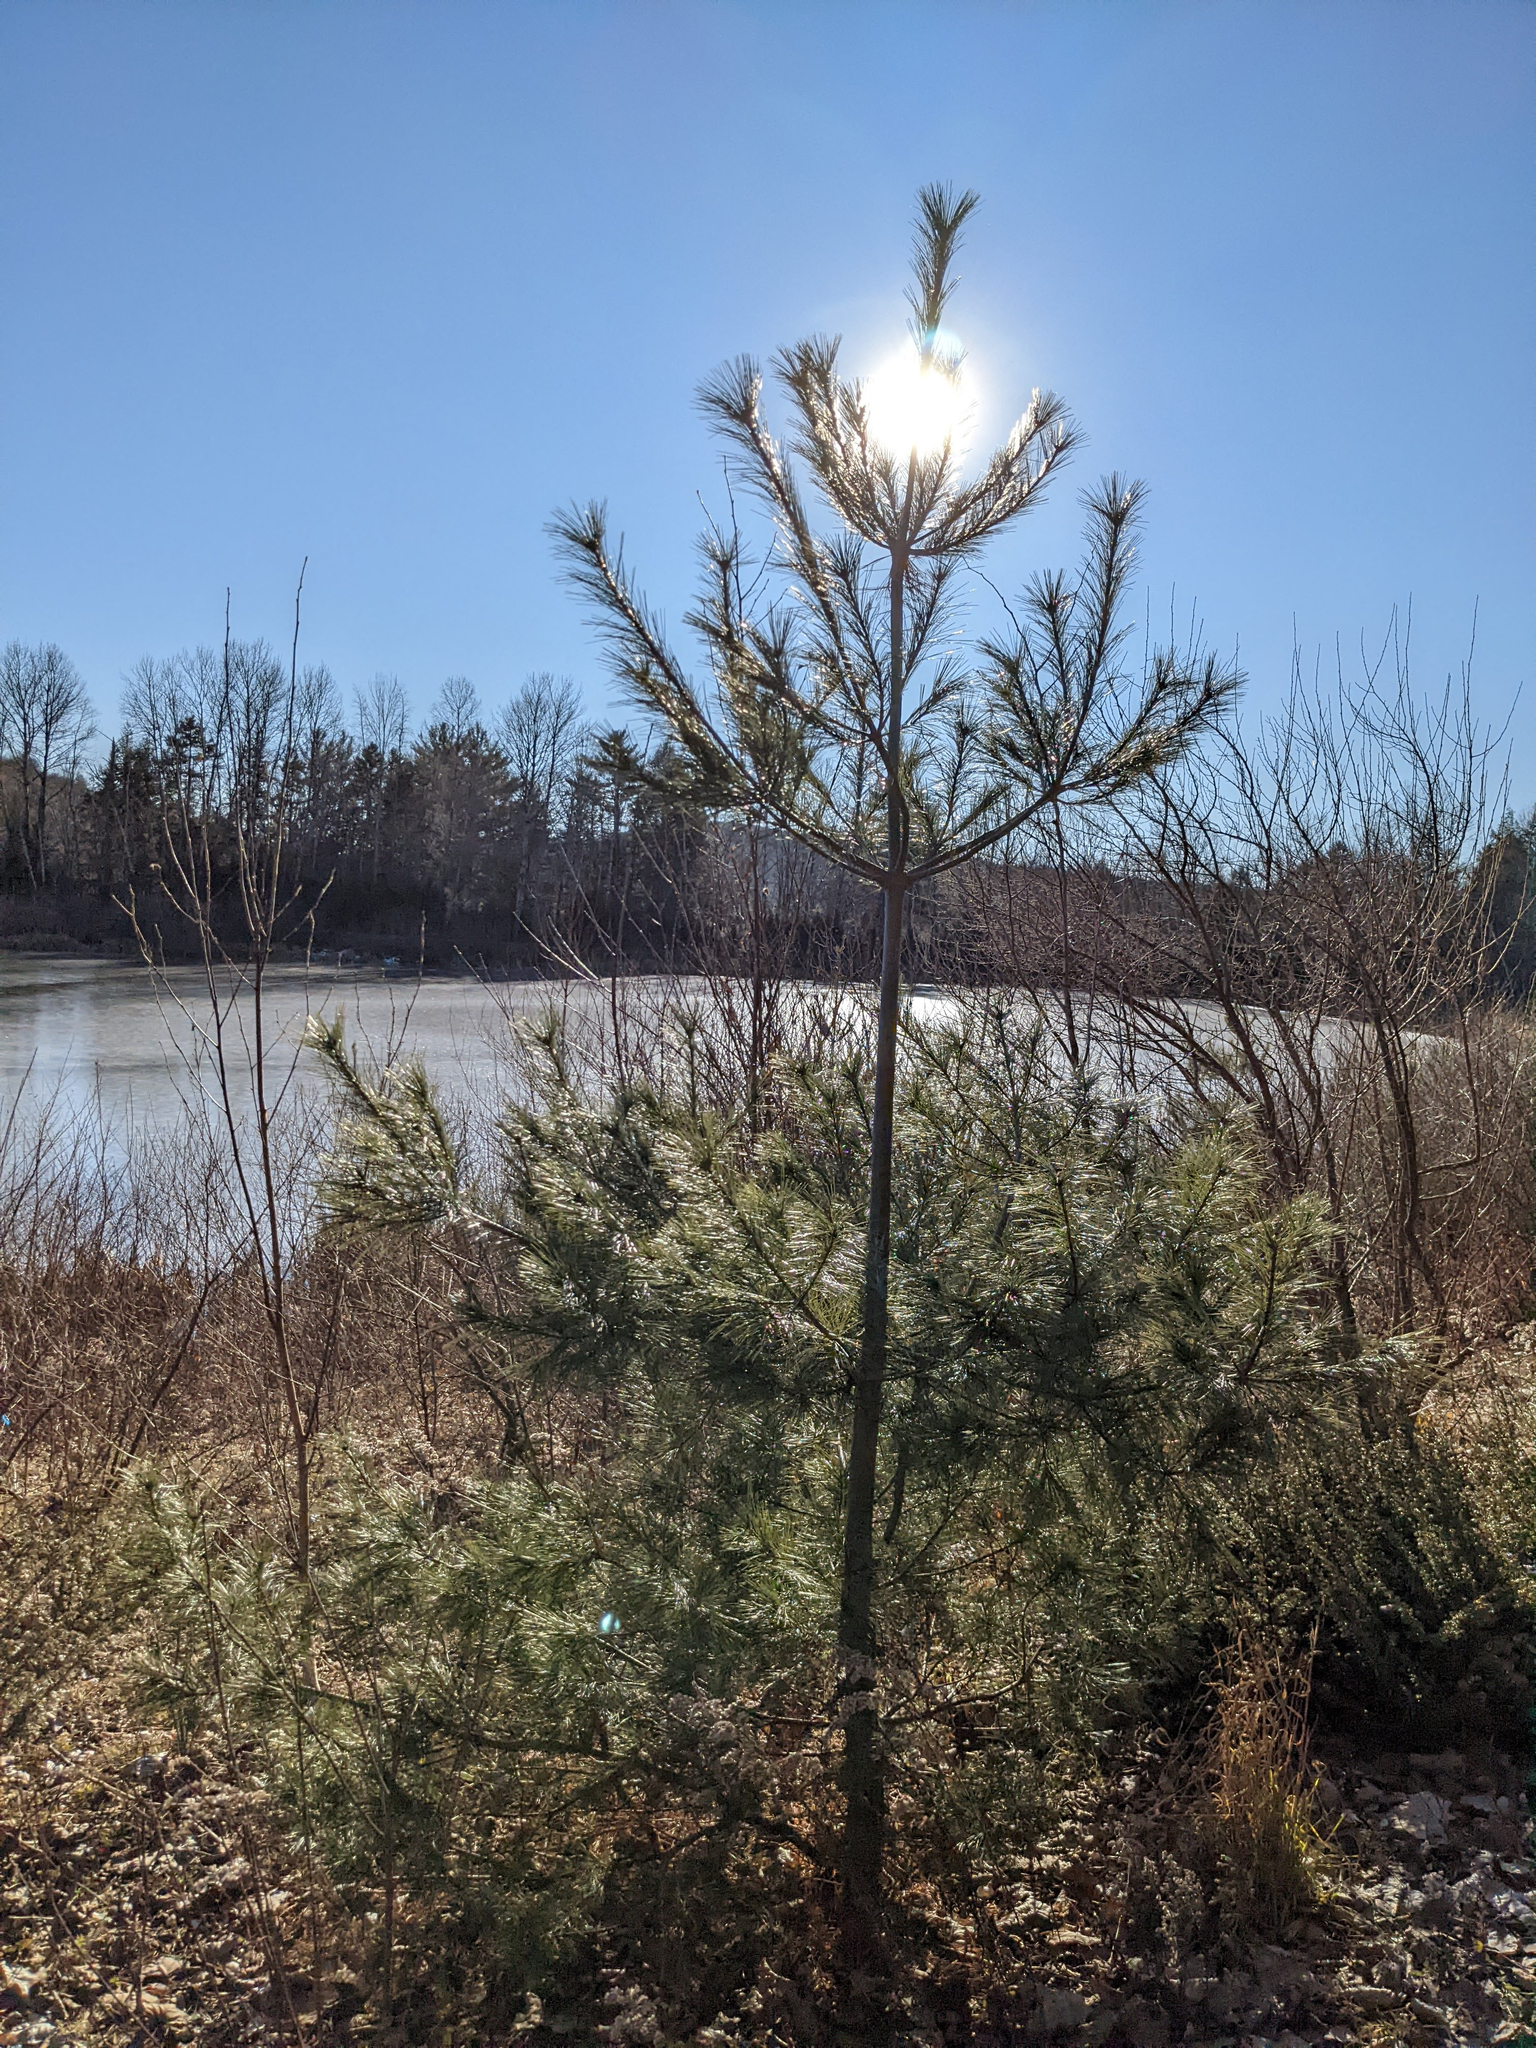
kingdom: Plantae
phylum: Tracheophyta
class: Pinopsida
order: Pinales
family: Pinaceae
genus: Pinus
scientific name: Pinus strobus
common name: Weymouth pine
